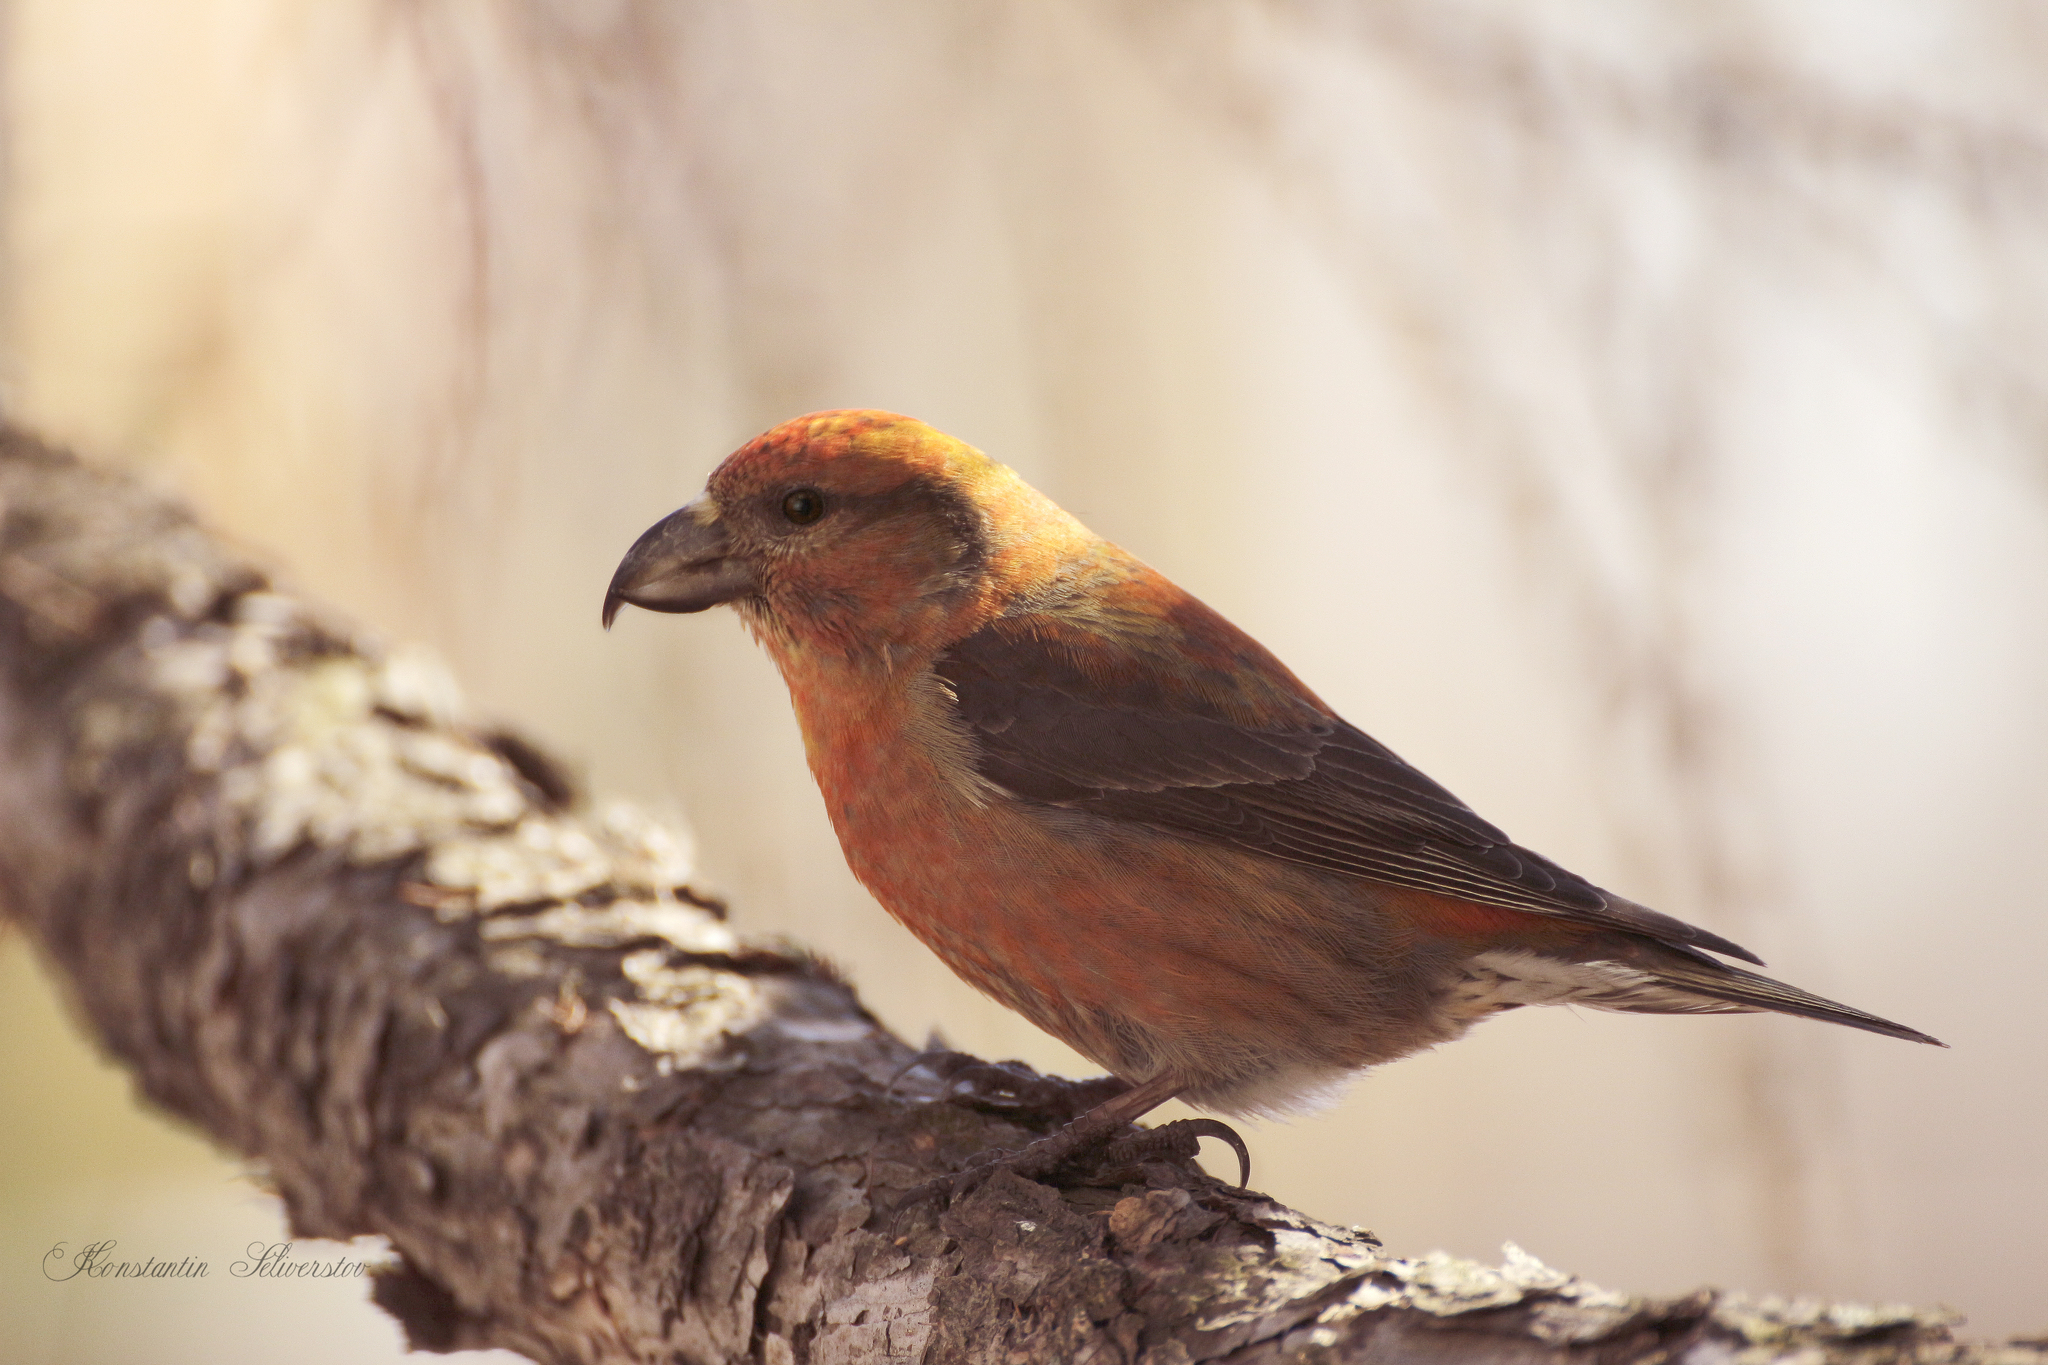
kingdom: Animalia
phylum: Chordata
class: Aves
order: Passeriformes
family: Fringillidae
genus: Loxia
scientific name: Loxia curvirostra
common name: Red crossbill
